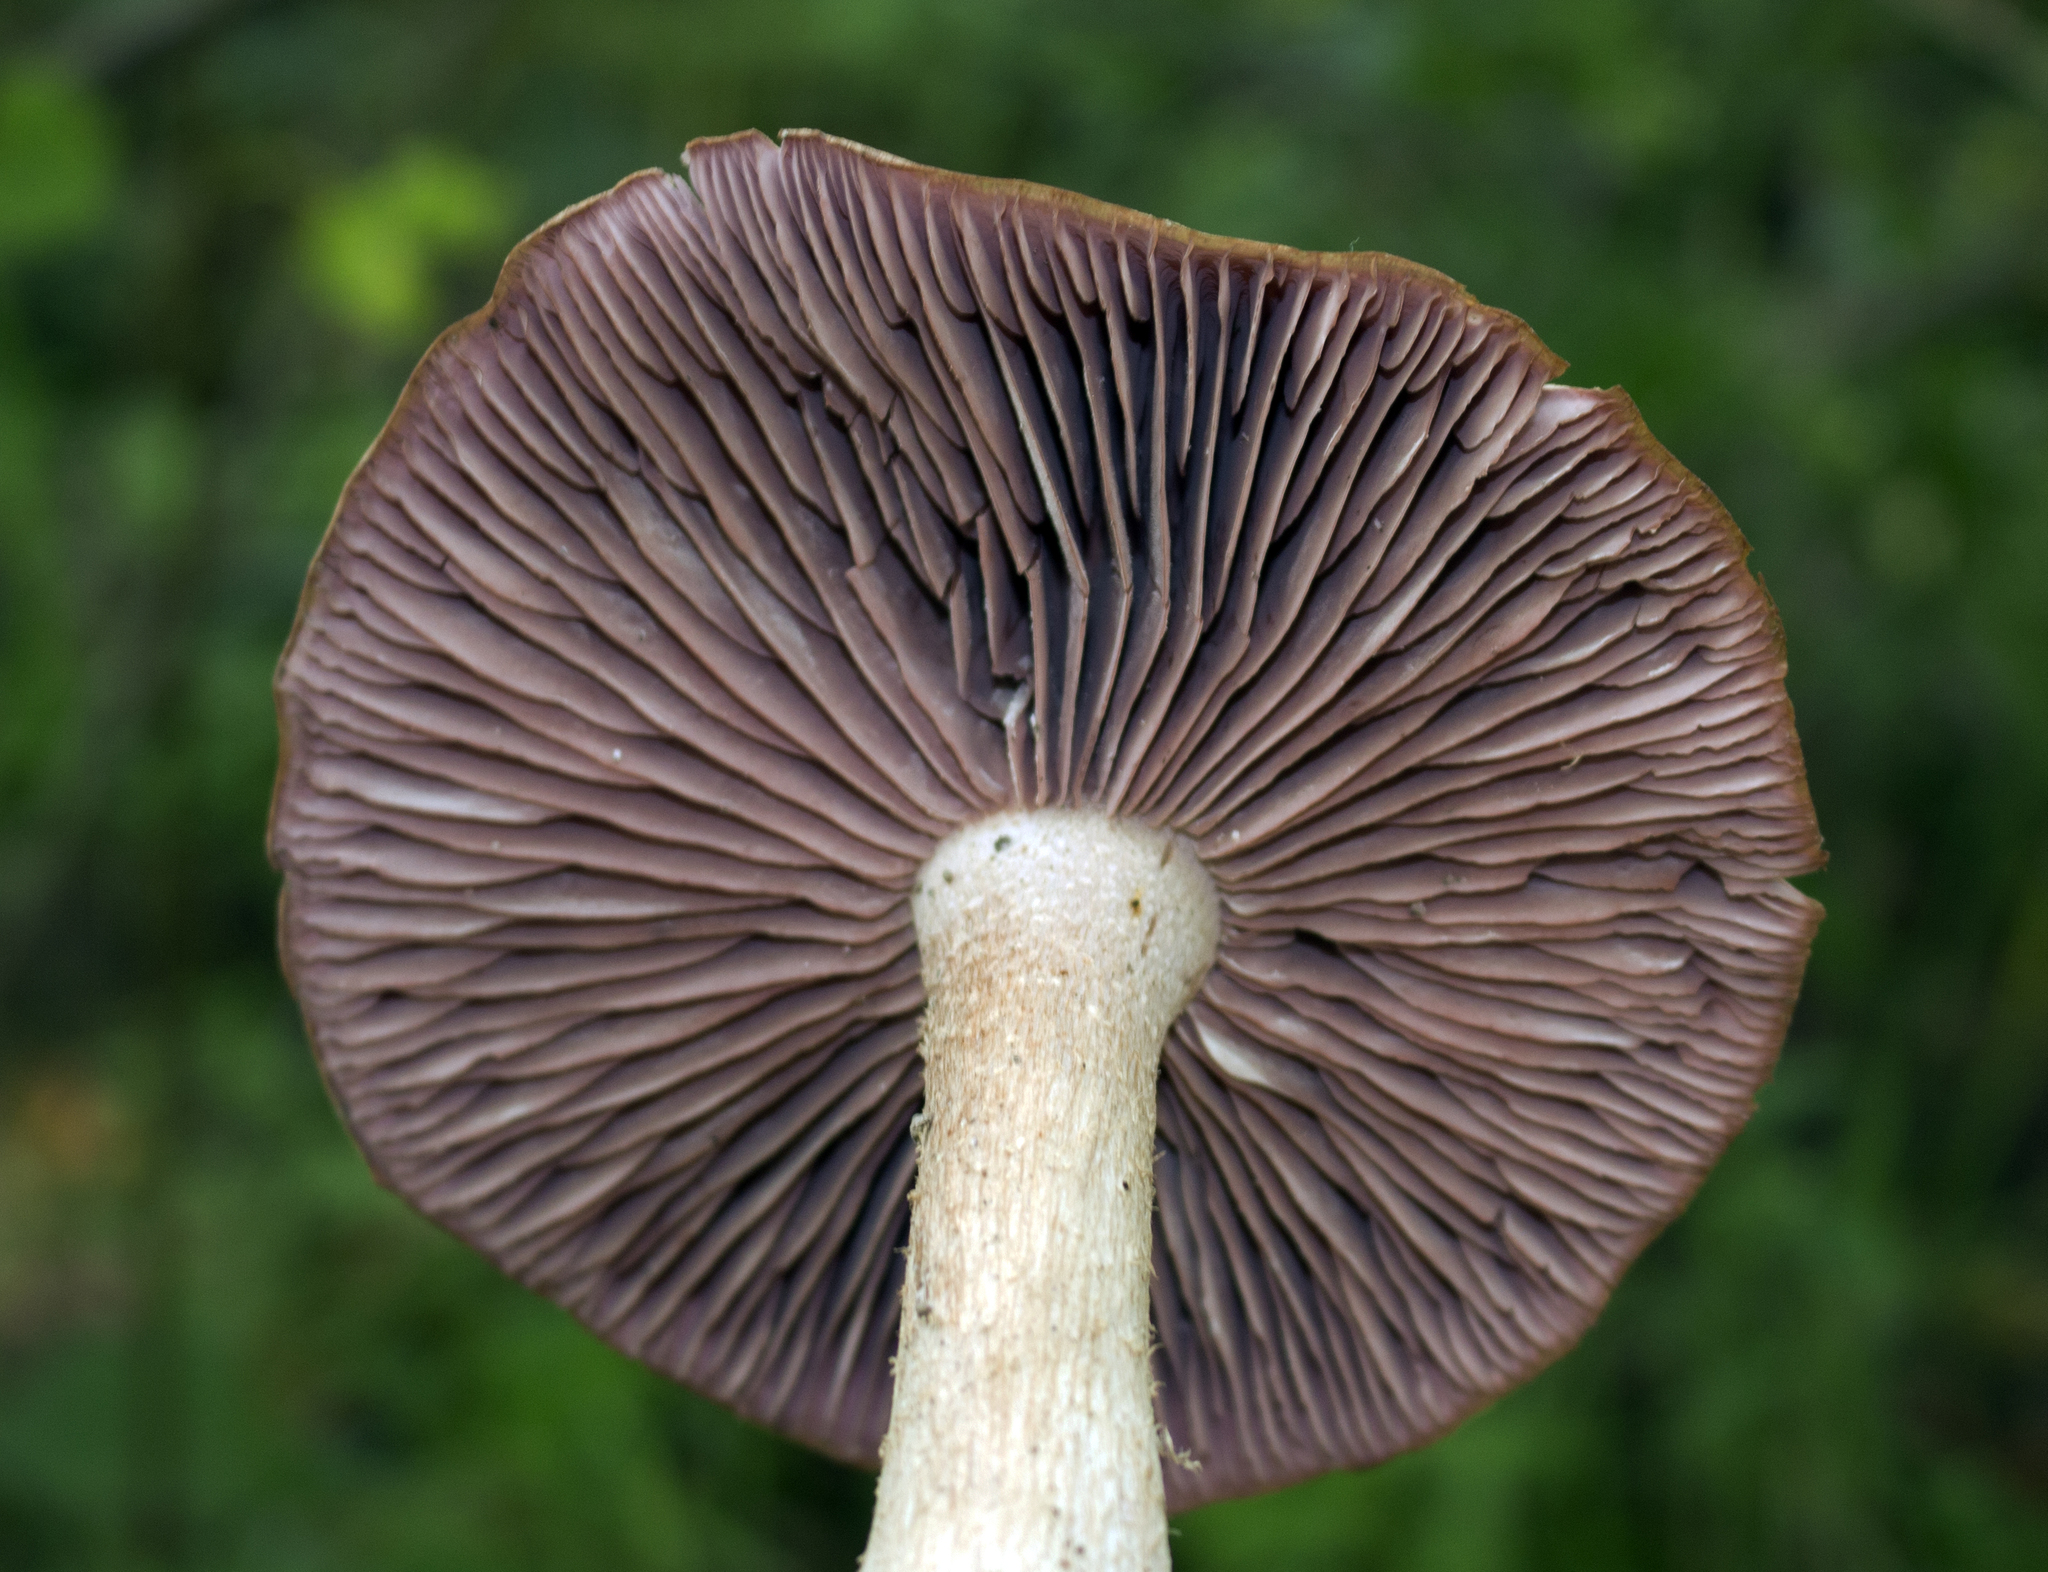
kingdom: Fungi
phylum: Basidiomycota
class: Agaricomycetes
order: Agaricales
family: Hydnangiaceae
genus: Laccaria
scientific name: Laccaria ochropurpurea
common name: Purple laccaria
